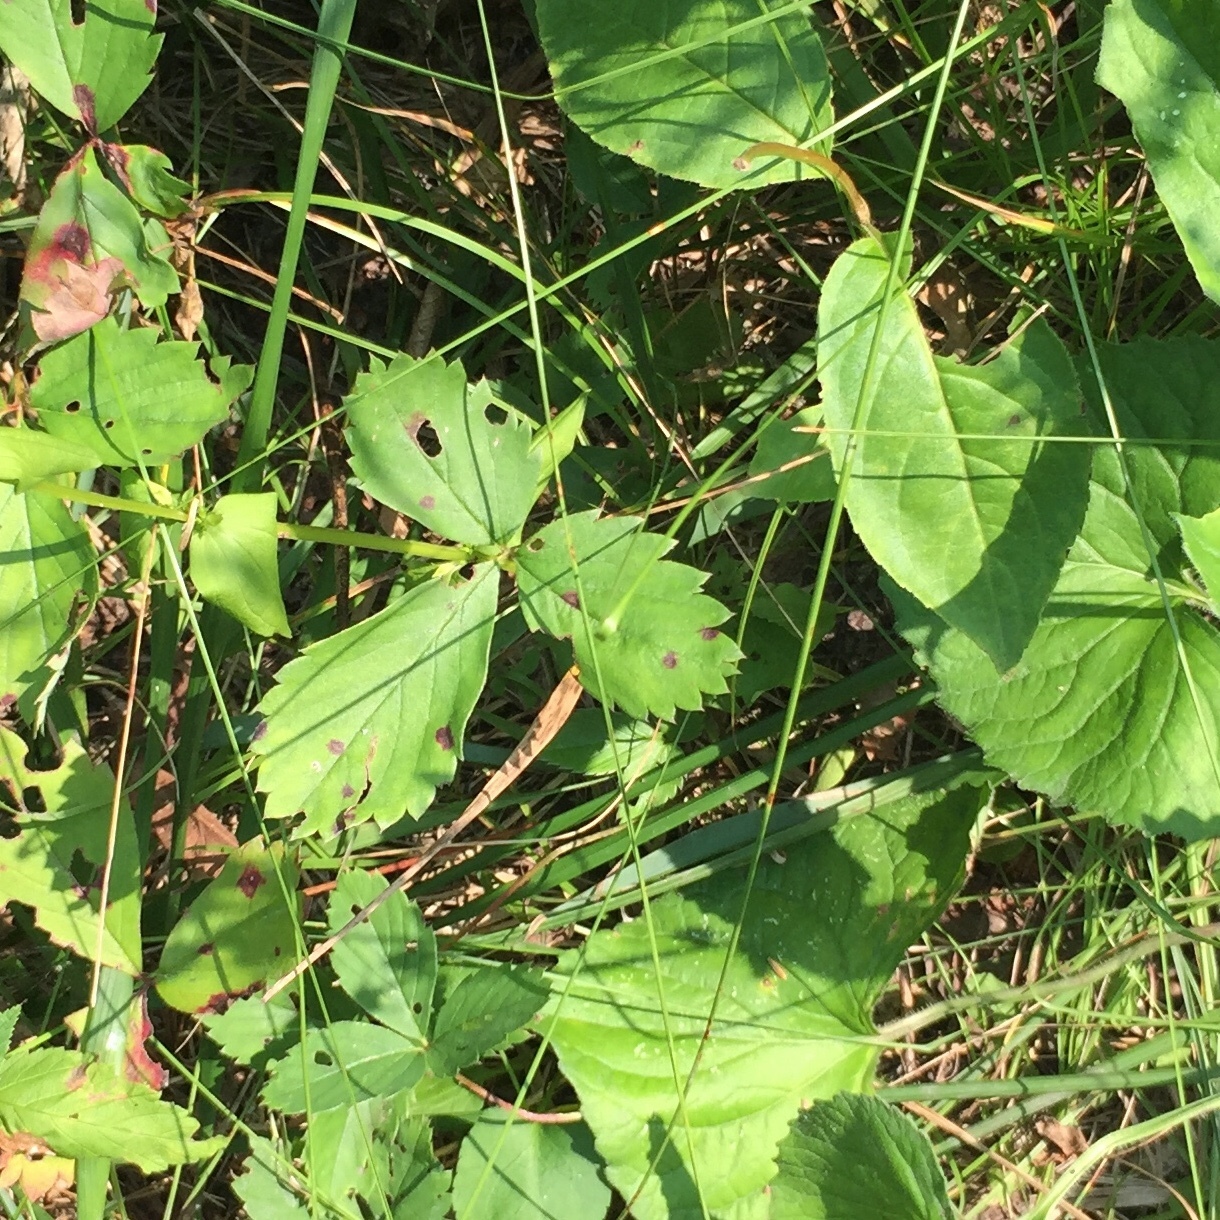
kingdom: Plantae
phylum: Tracheophyta
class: Magnoliopsida
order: Rosales
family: Rosaceae
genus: Fragaria
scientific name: Fragaria virginiana
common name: Thickleaved wild strawberry
